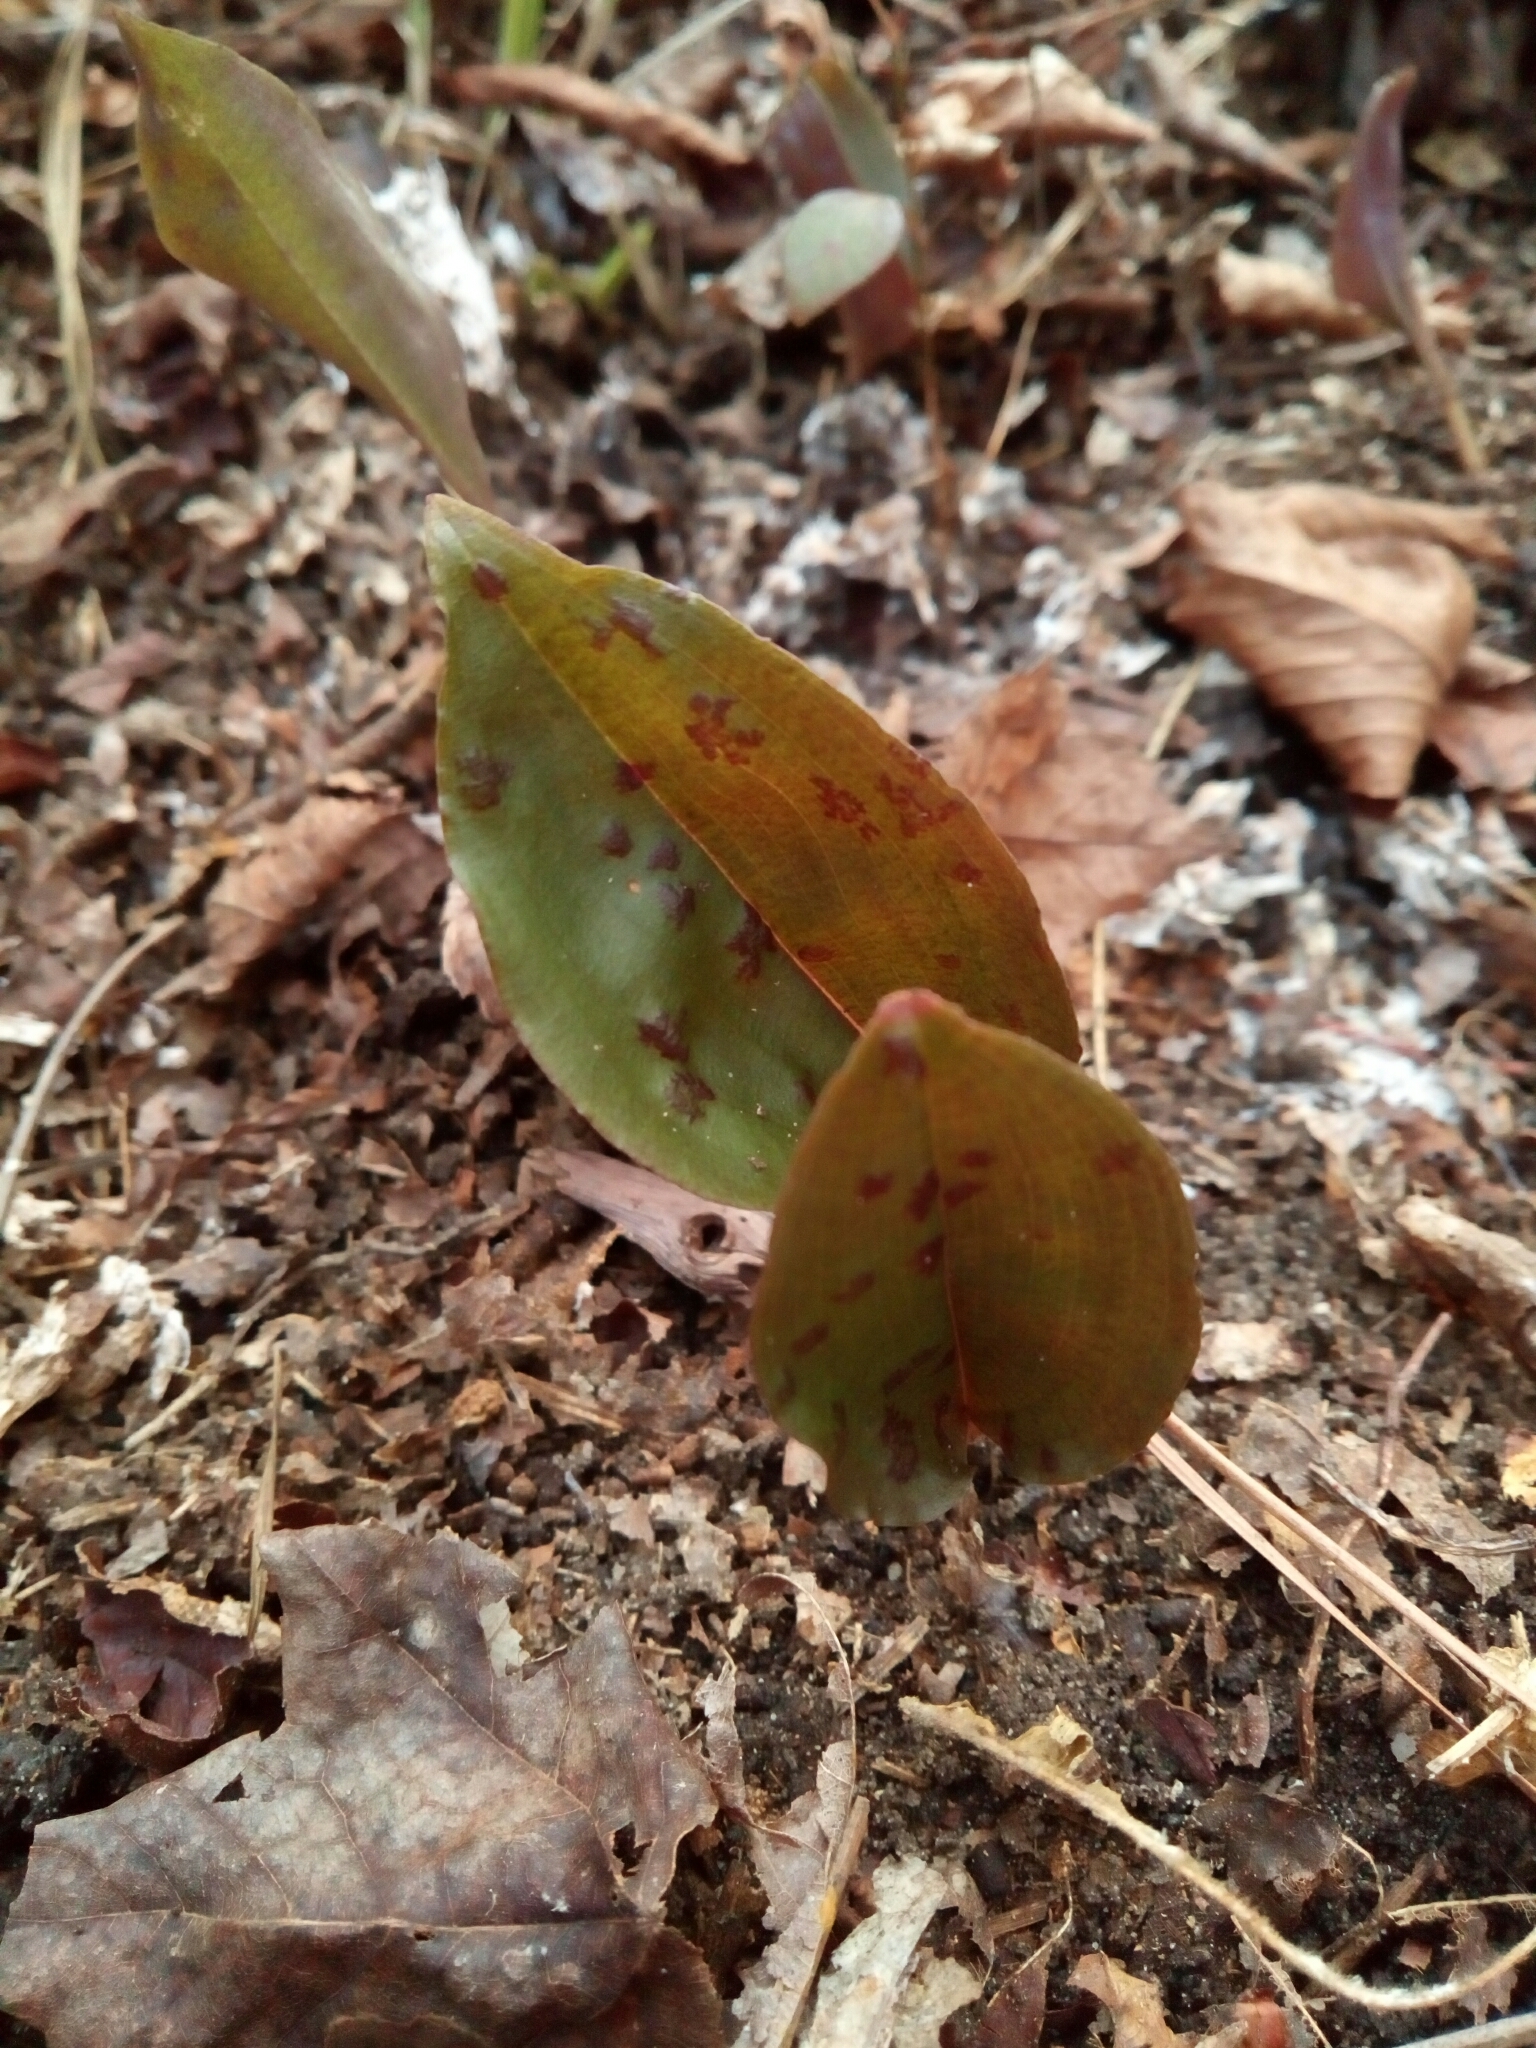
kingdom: Plantae
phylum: Tracheophyta
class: Liliopsida
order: Asparagales
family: Orchidaceae
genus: Tipularia
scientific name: Tipularia discolor
